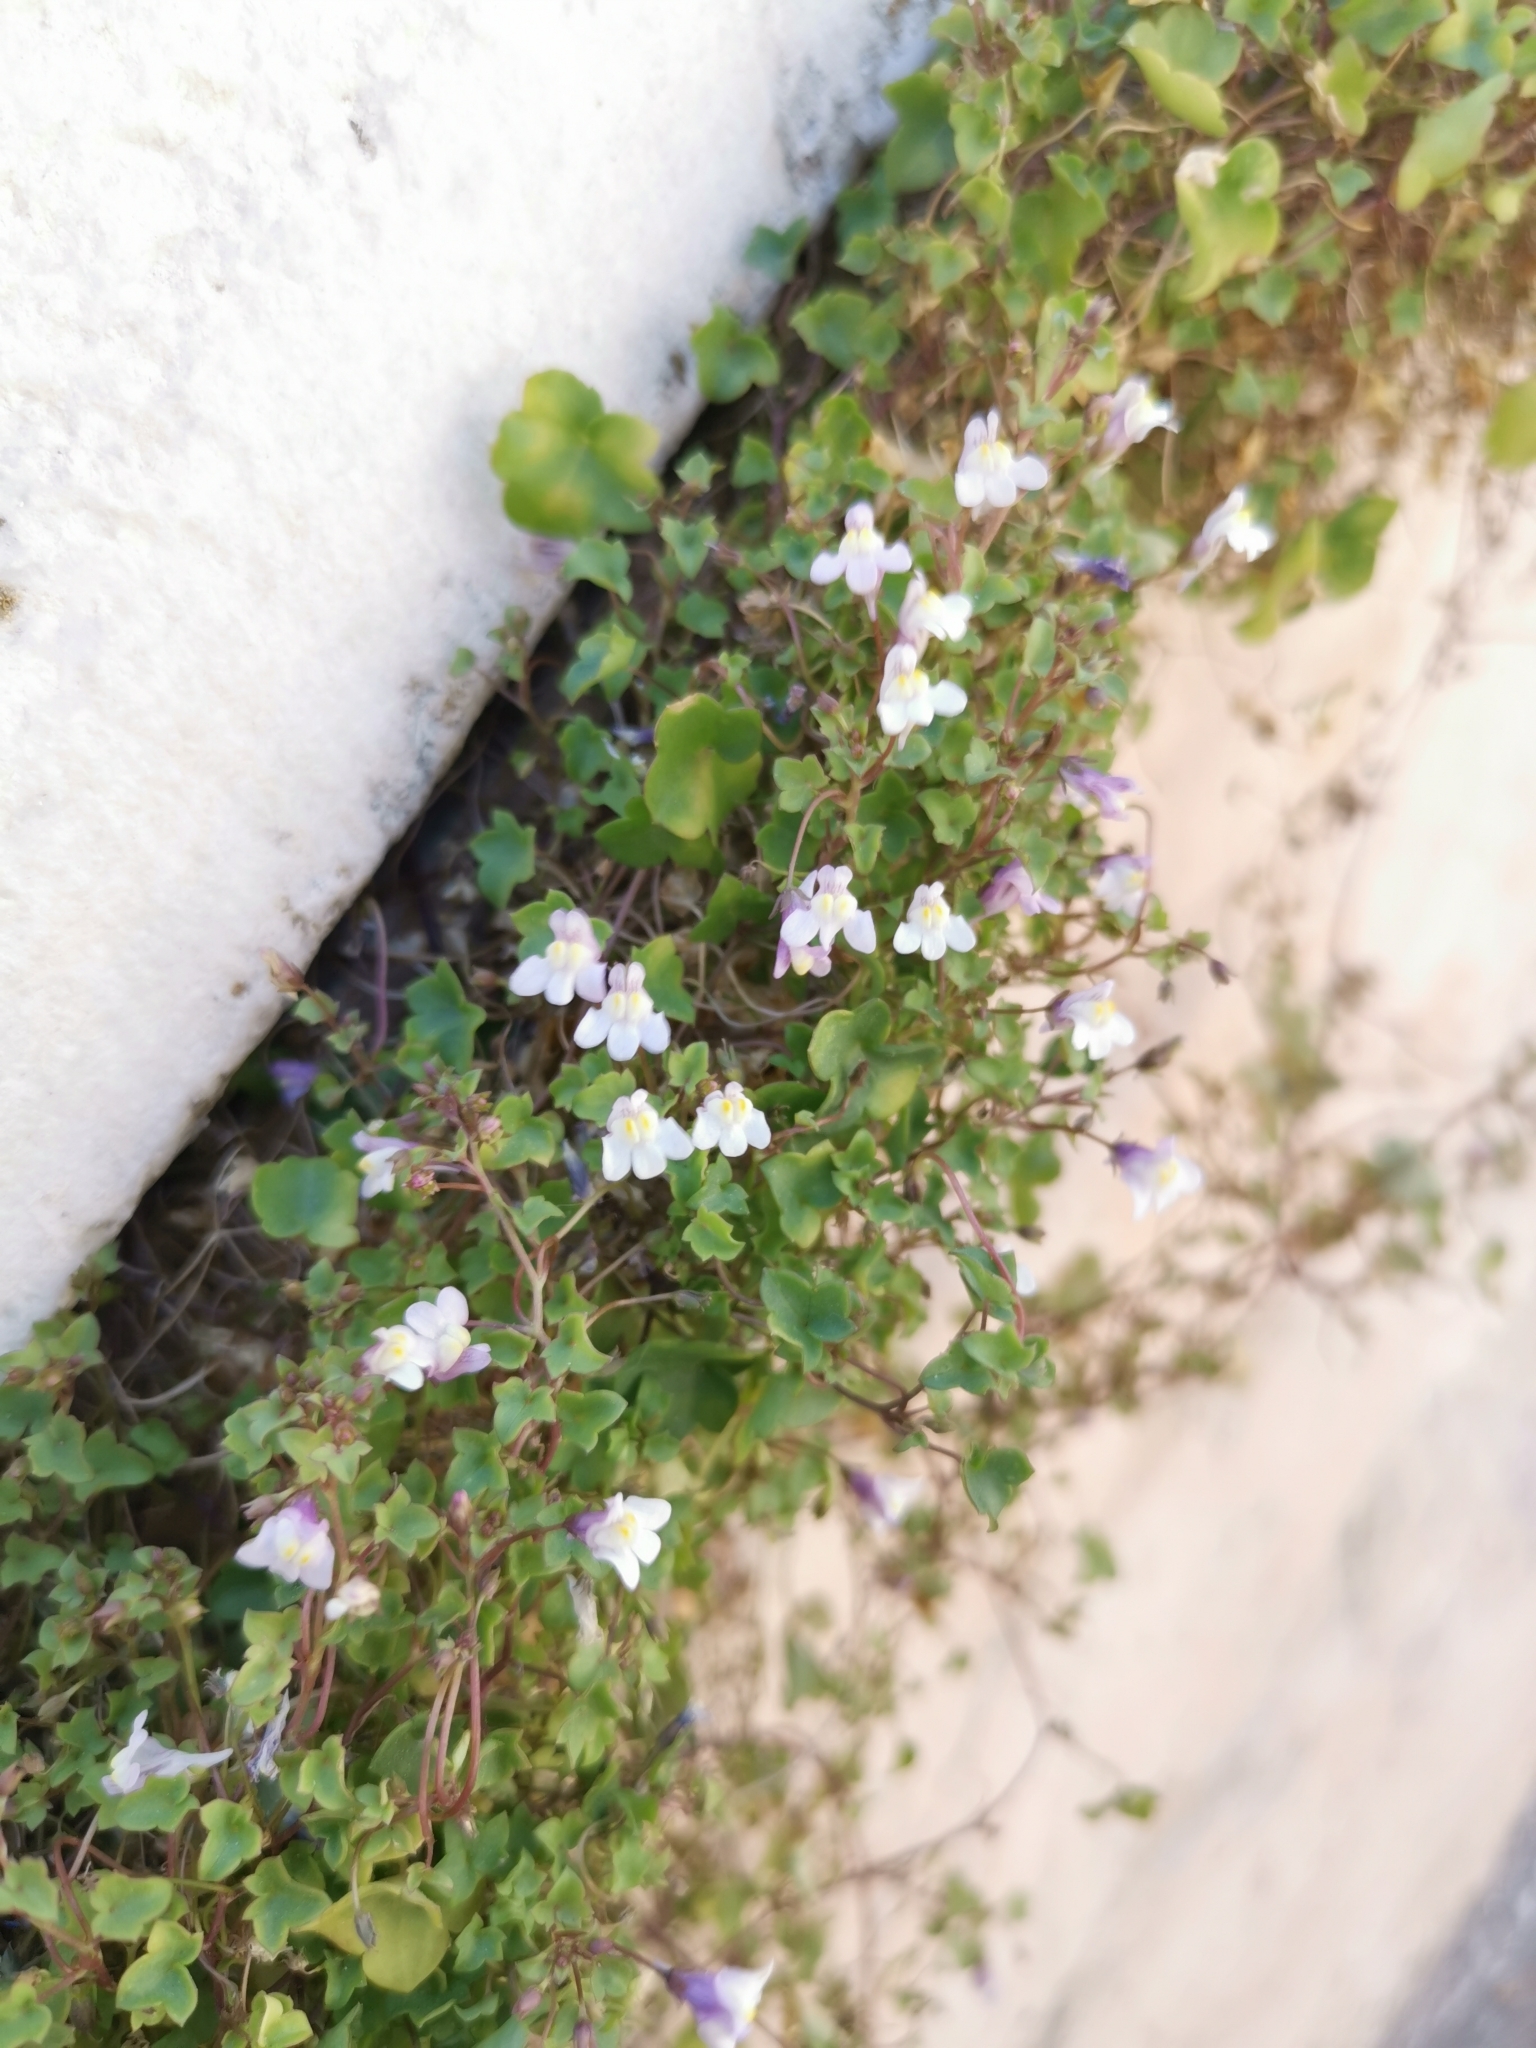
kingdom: Plantae
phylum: Tracheophyta
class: Magnoliopsida
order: Lamiales
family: Plantaginaceae
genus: Cymbalaria
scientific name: Cymbalaria muralis
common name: Ivy-leaved toadflax
